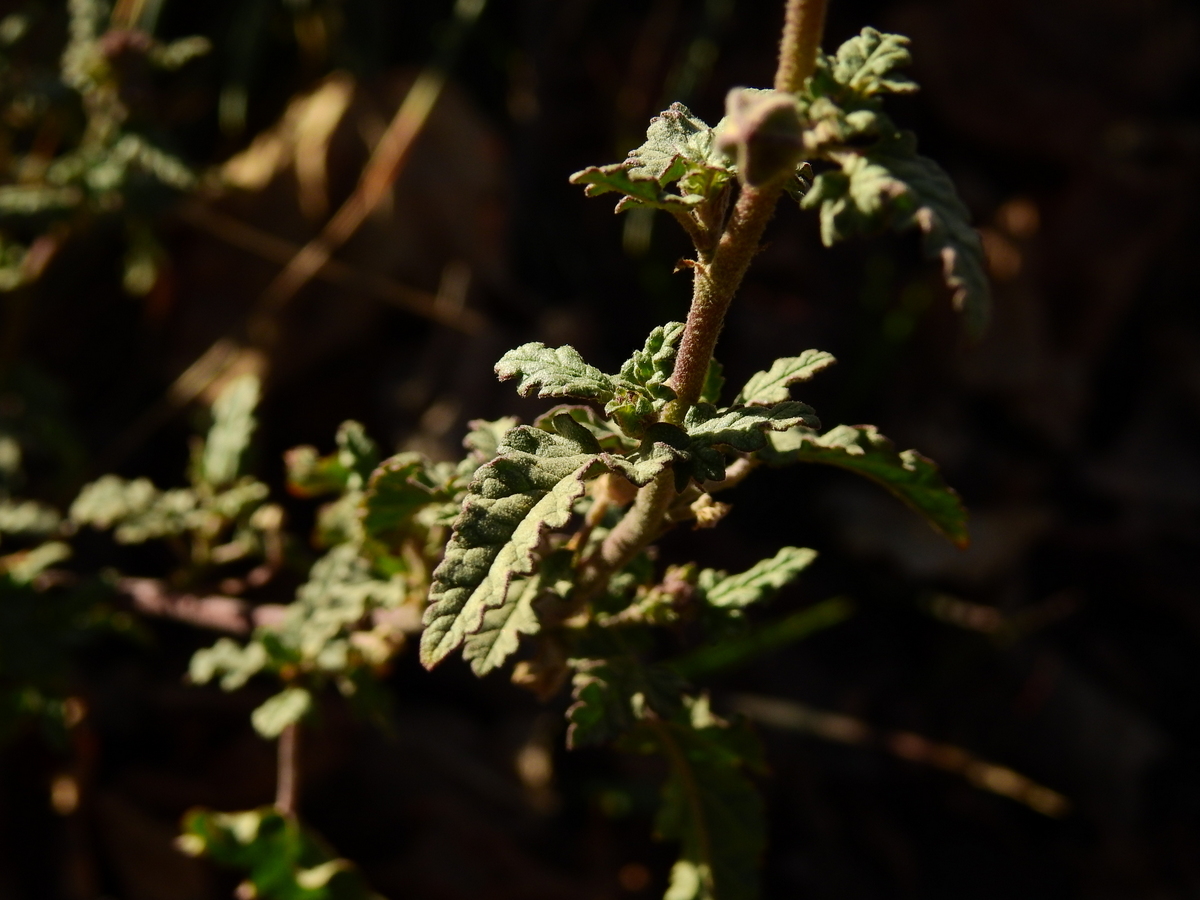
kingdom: Plantae
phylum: Tracheophyta
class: Magnoliopsida
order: Malvales
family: Malvaceae
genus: Sphaeralcea
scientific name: Sphaeralcea miniata
